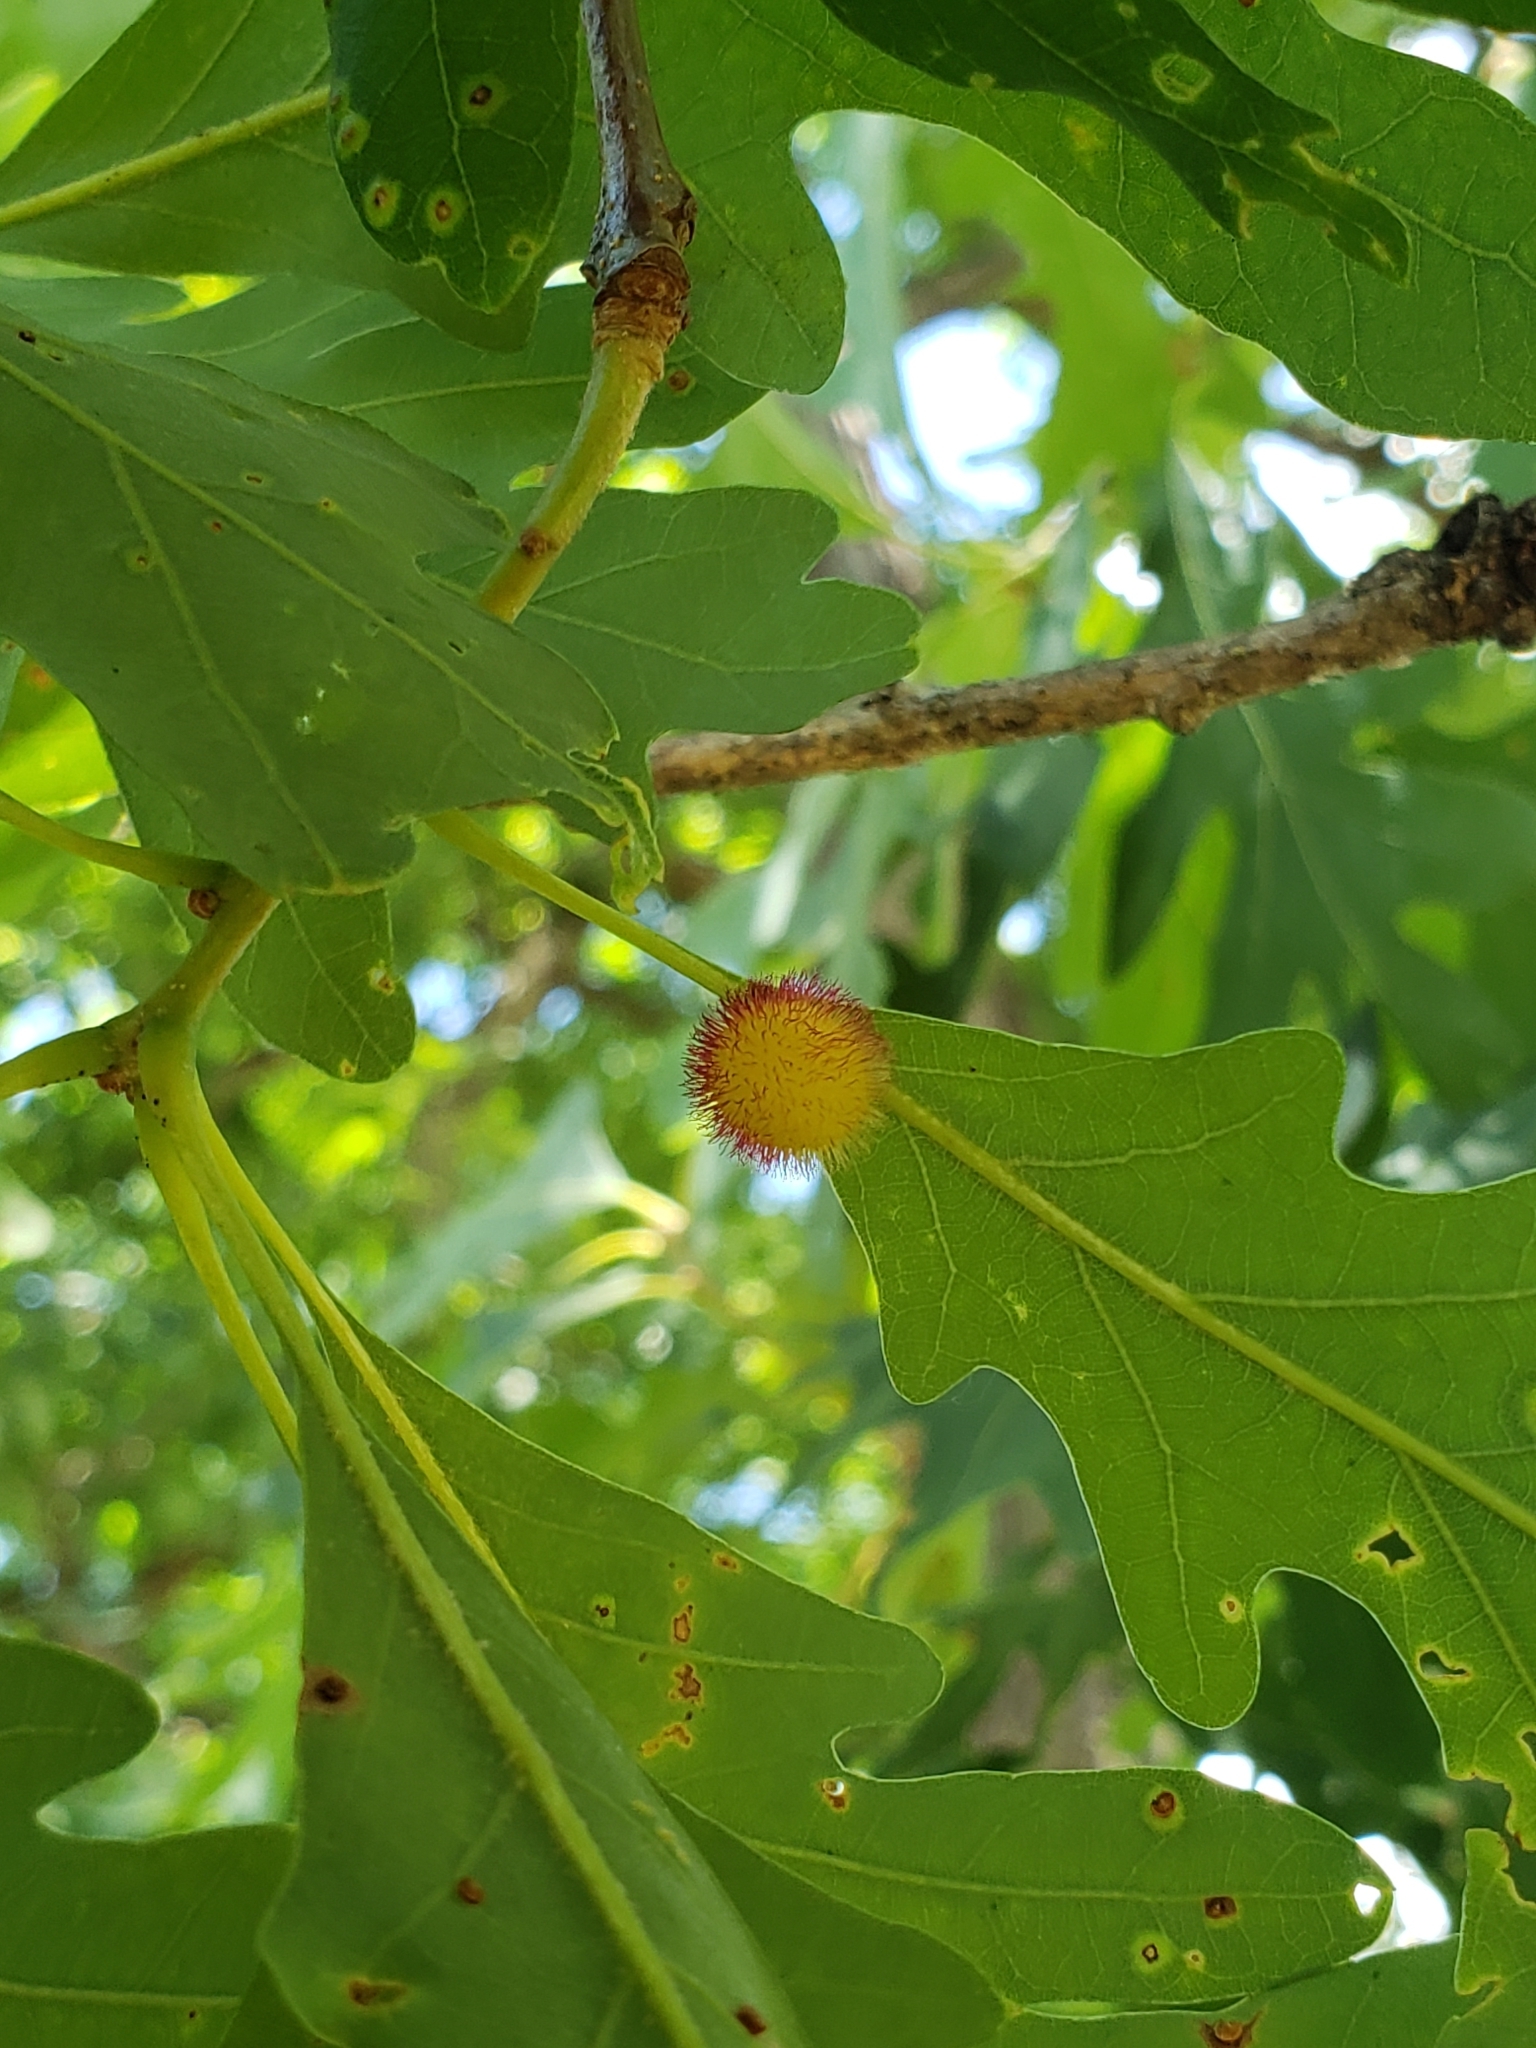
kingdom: Animalia
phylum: Arthropoda
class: Insecta
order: Hymenoptera
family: Cynipidae
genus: Acraspis
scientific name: Acraspis erinacei
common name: Hedgehog gall wasp
